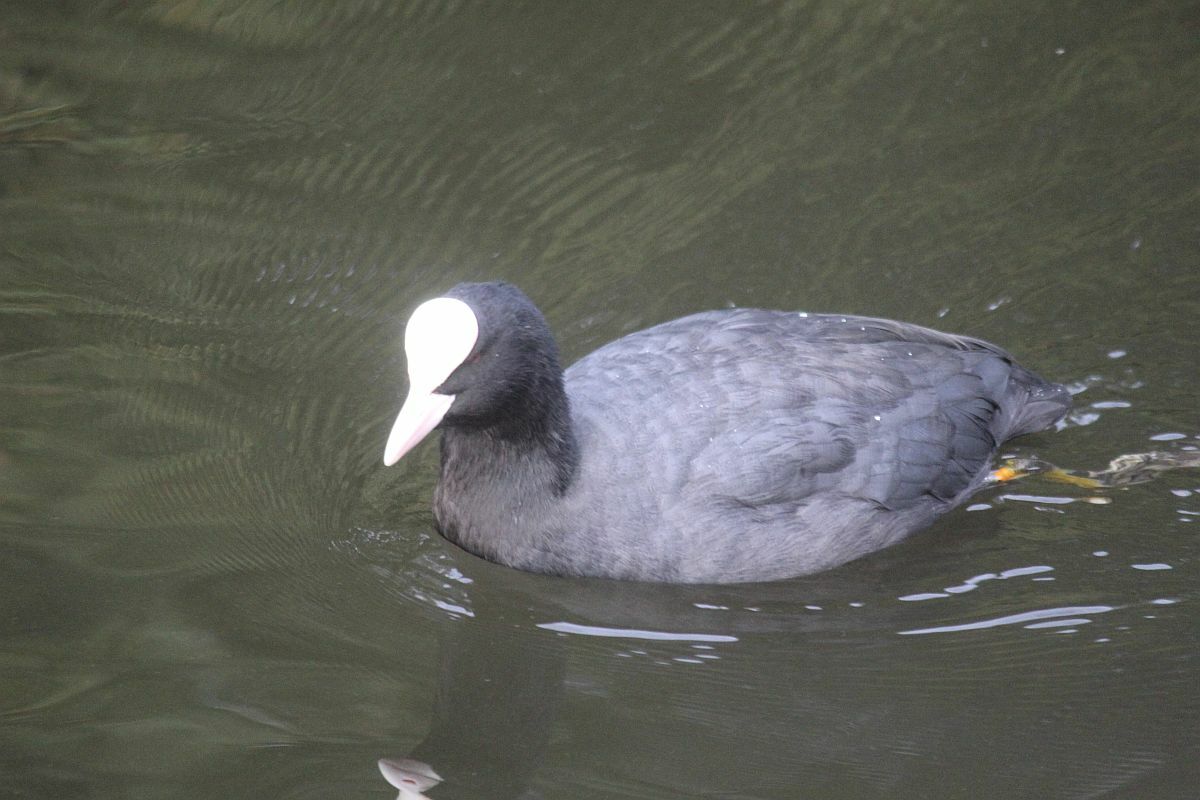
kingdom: Animalia
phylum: Chordata
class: Aves
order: Gruiformes
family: Rallidae
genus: Fulica
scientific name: Fulica atra
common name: Eurasian coot
